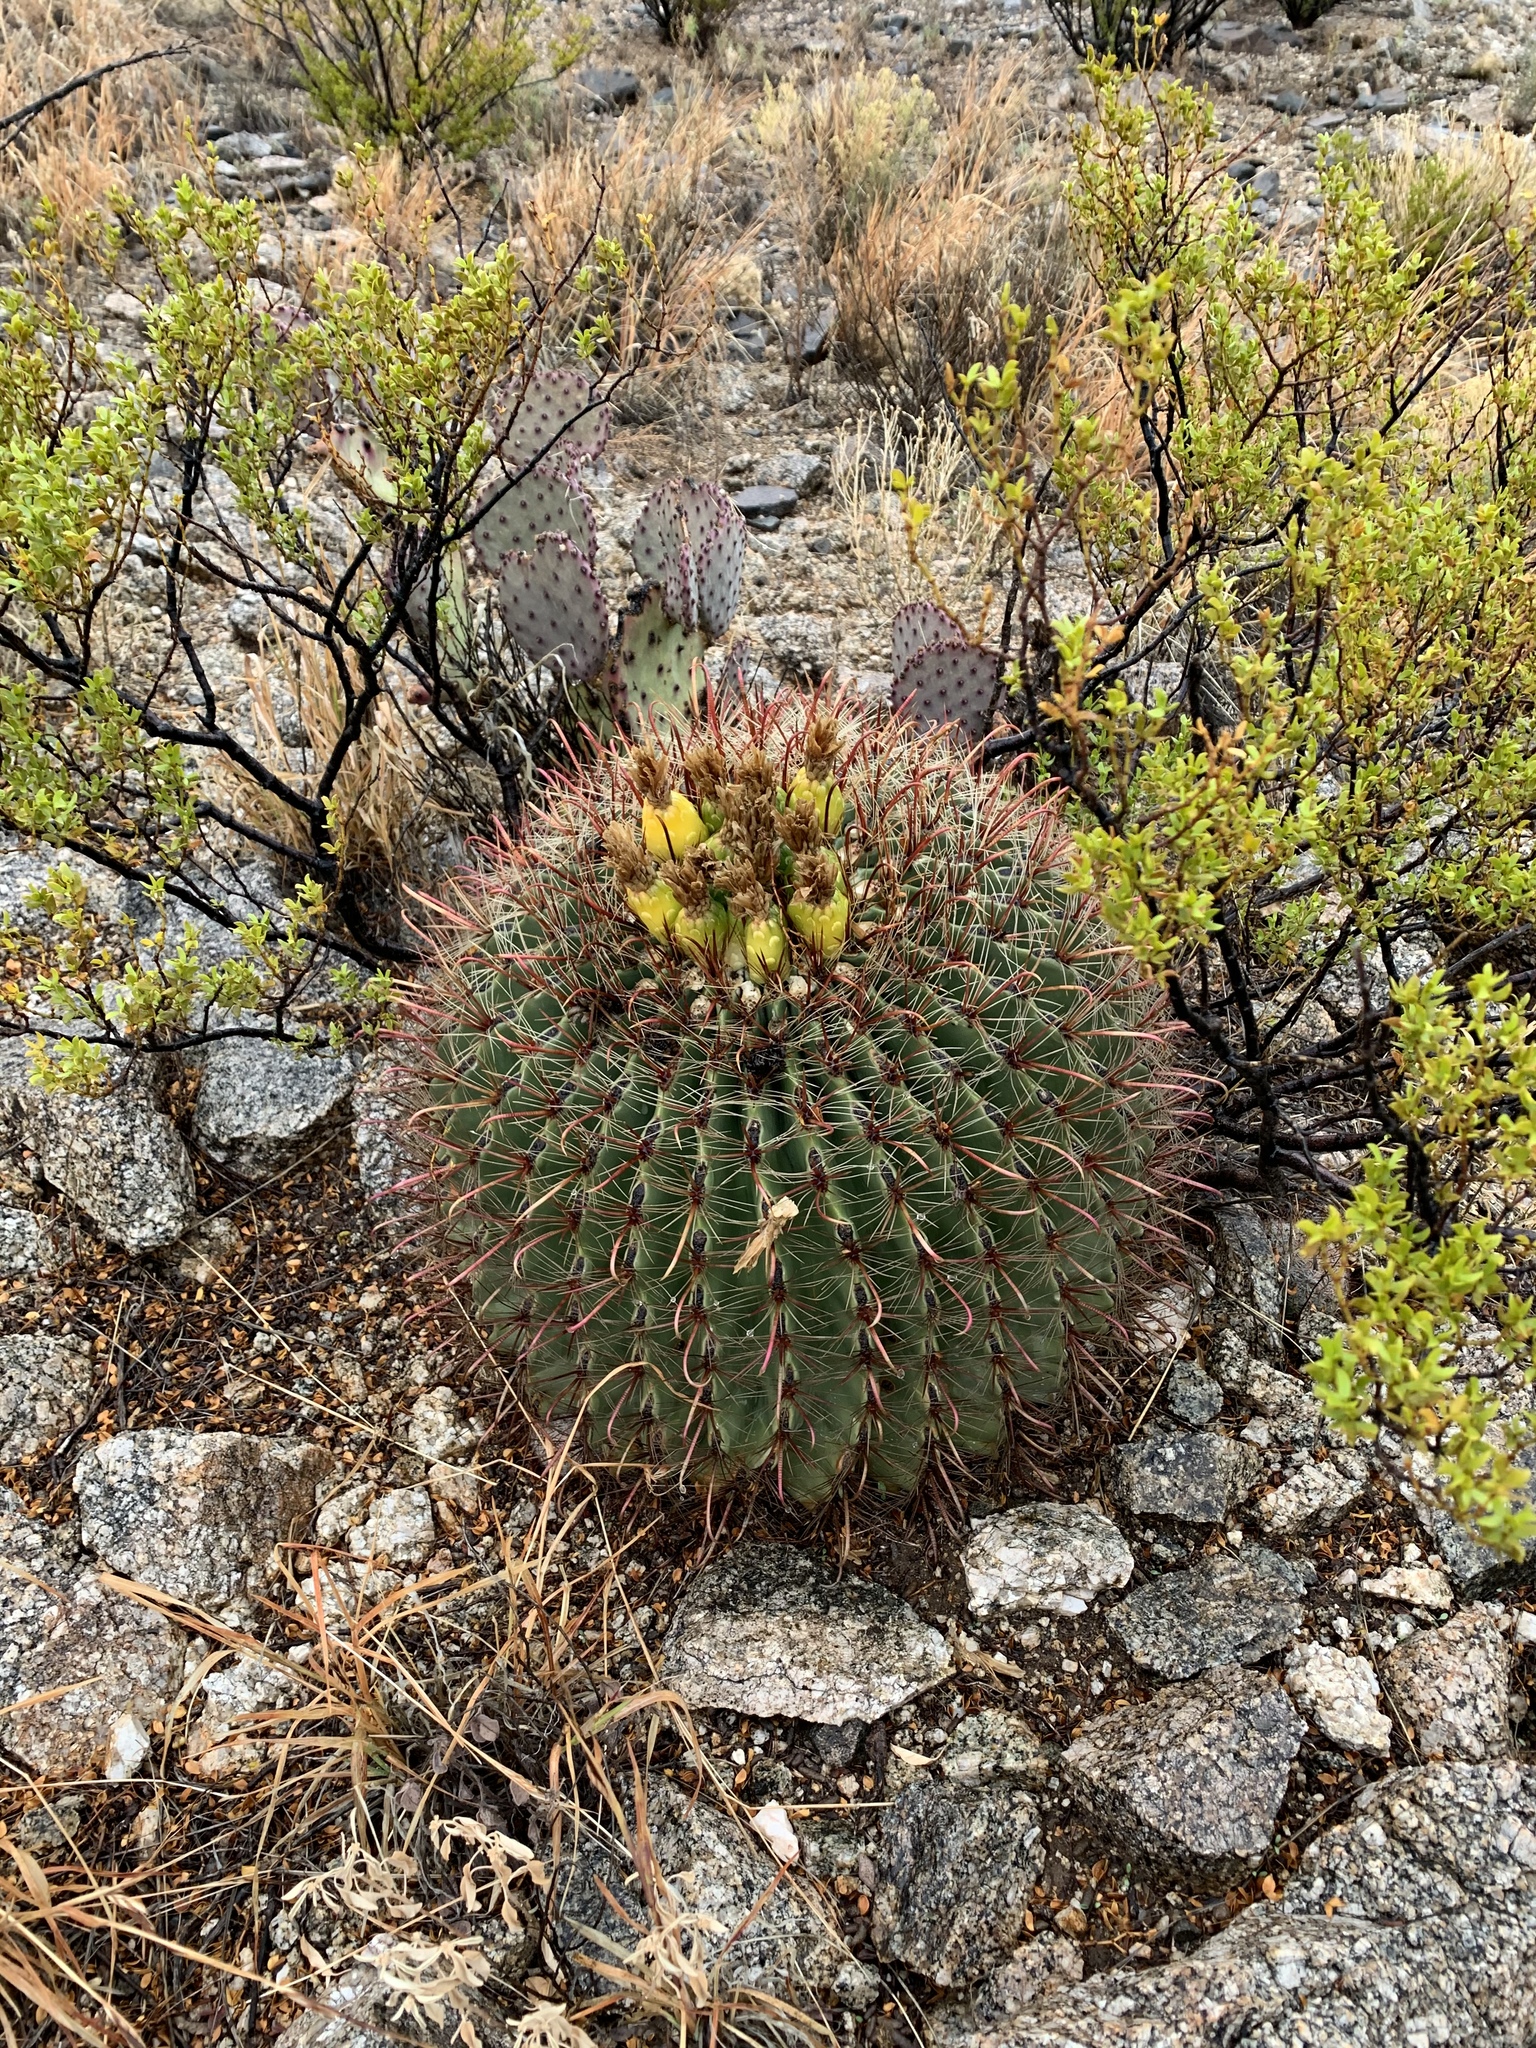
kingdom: Plantae
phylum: Tracheophyta
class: Magnoliopsida
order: Caryophyllales
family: Cactaceae
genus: Ferocactus
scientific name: Ferocactus wislizeni
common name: Candy barrel cactus
